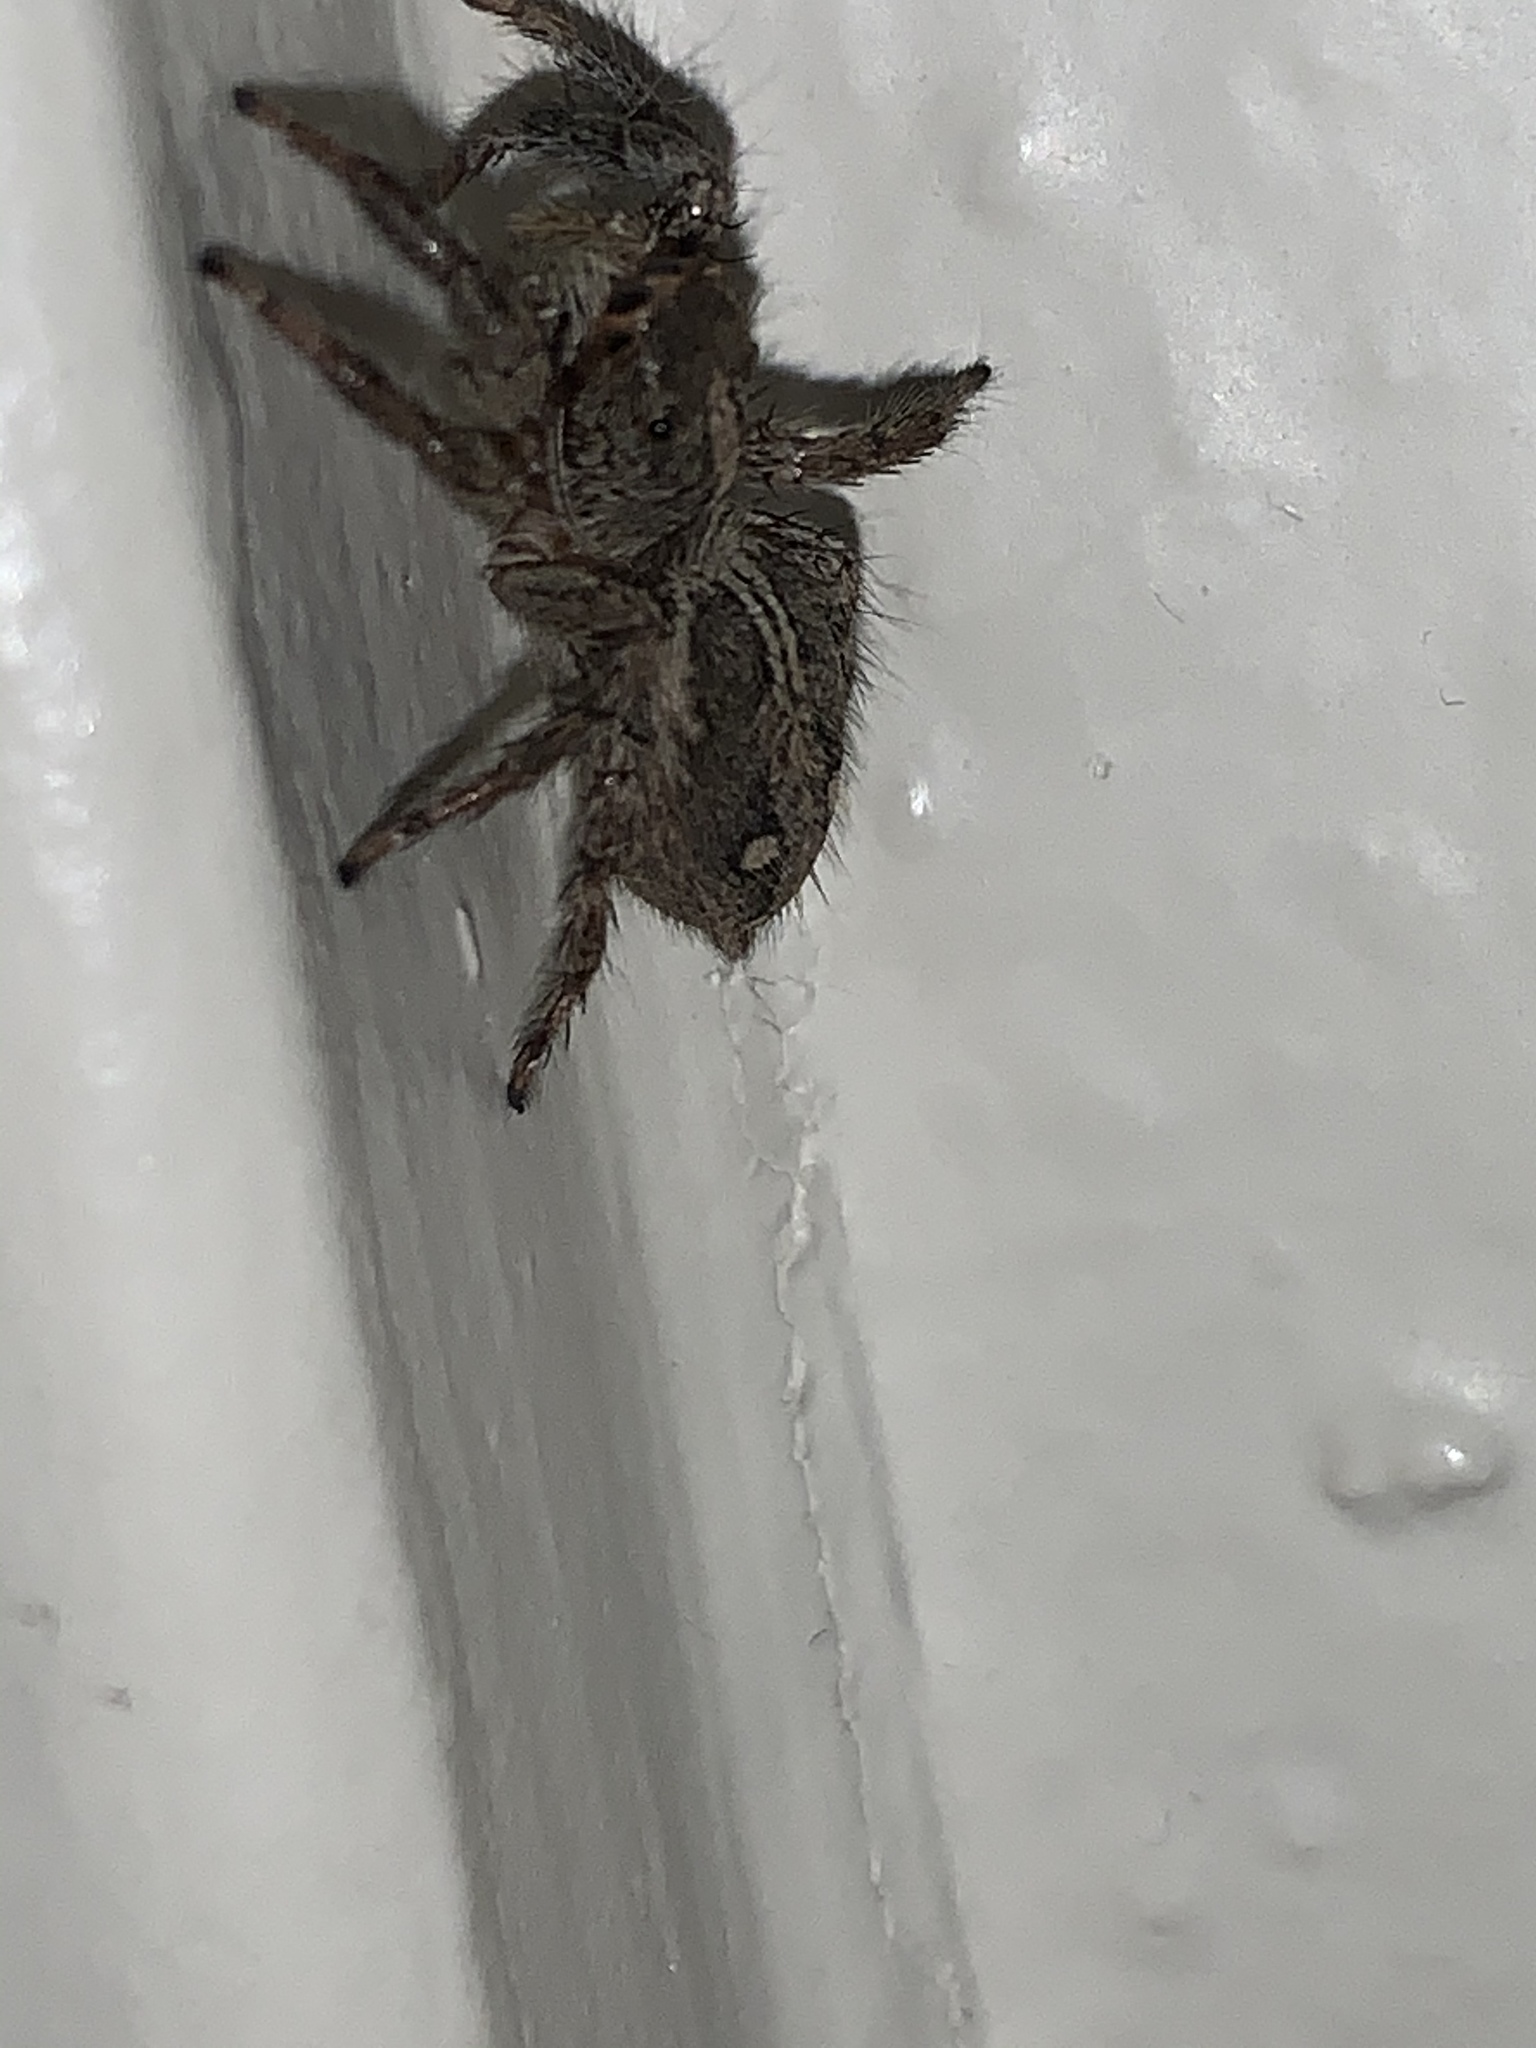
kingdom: Animalia
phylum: Arthropoda
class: Arachnida
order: Araneae
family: Salticidae
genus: Plexippus
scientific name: Plexippus paykulli
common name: Pantropical jumper
